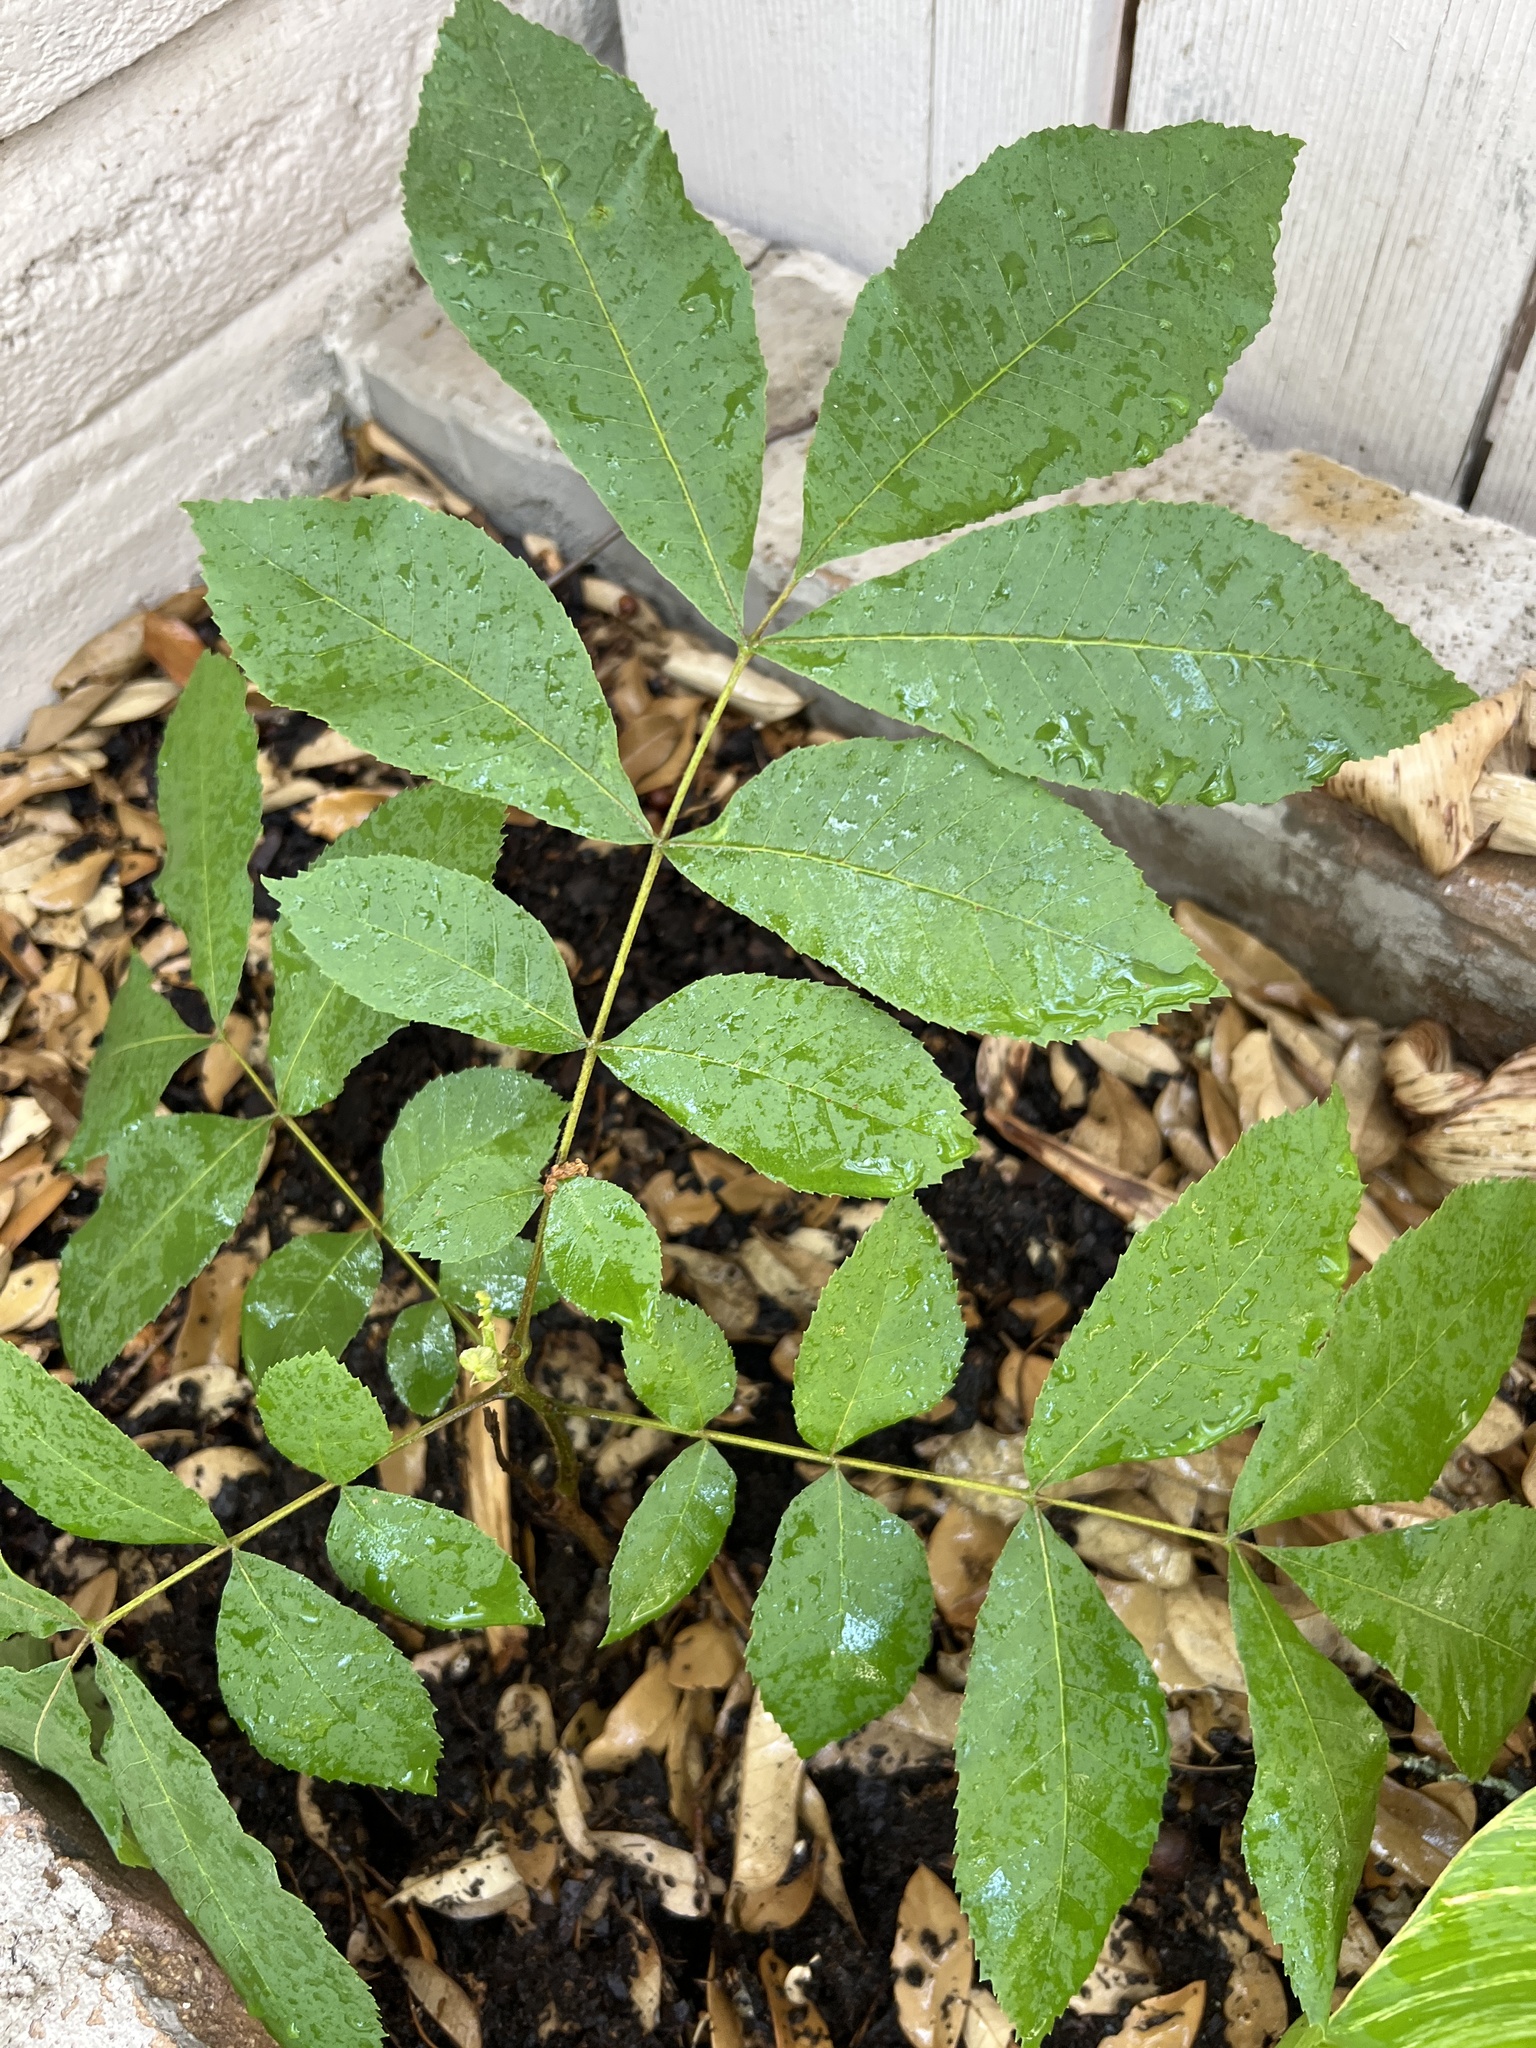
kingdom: Plantae
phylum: Tracheophyta
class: Magnoliopsida
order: Fagales
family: Juglandaceae
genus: Carya
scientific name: Carya illinoinensis
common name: Pecan
